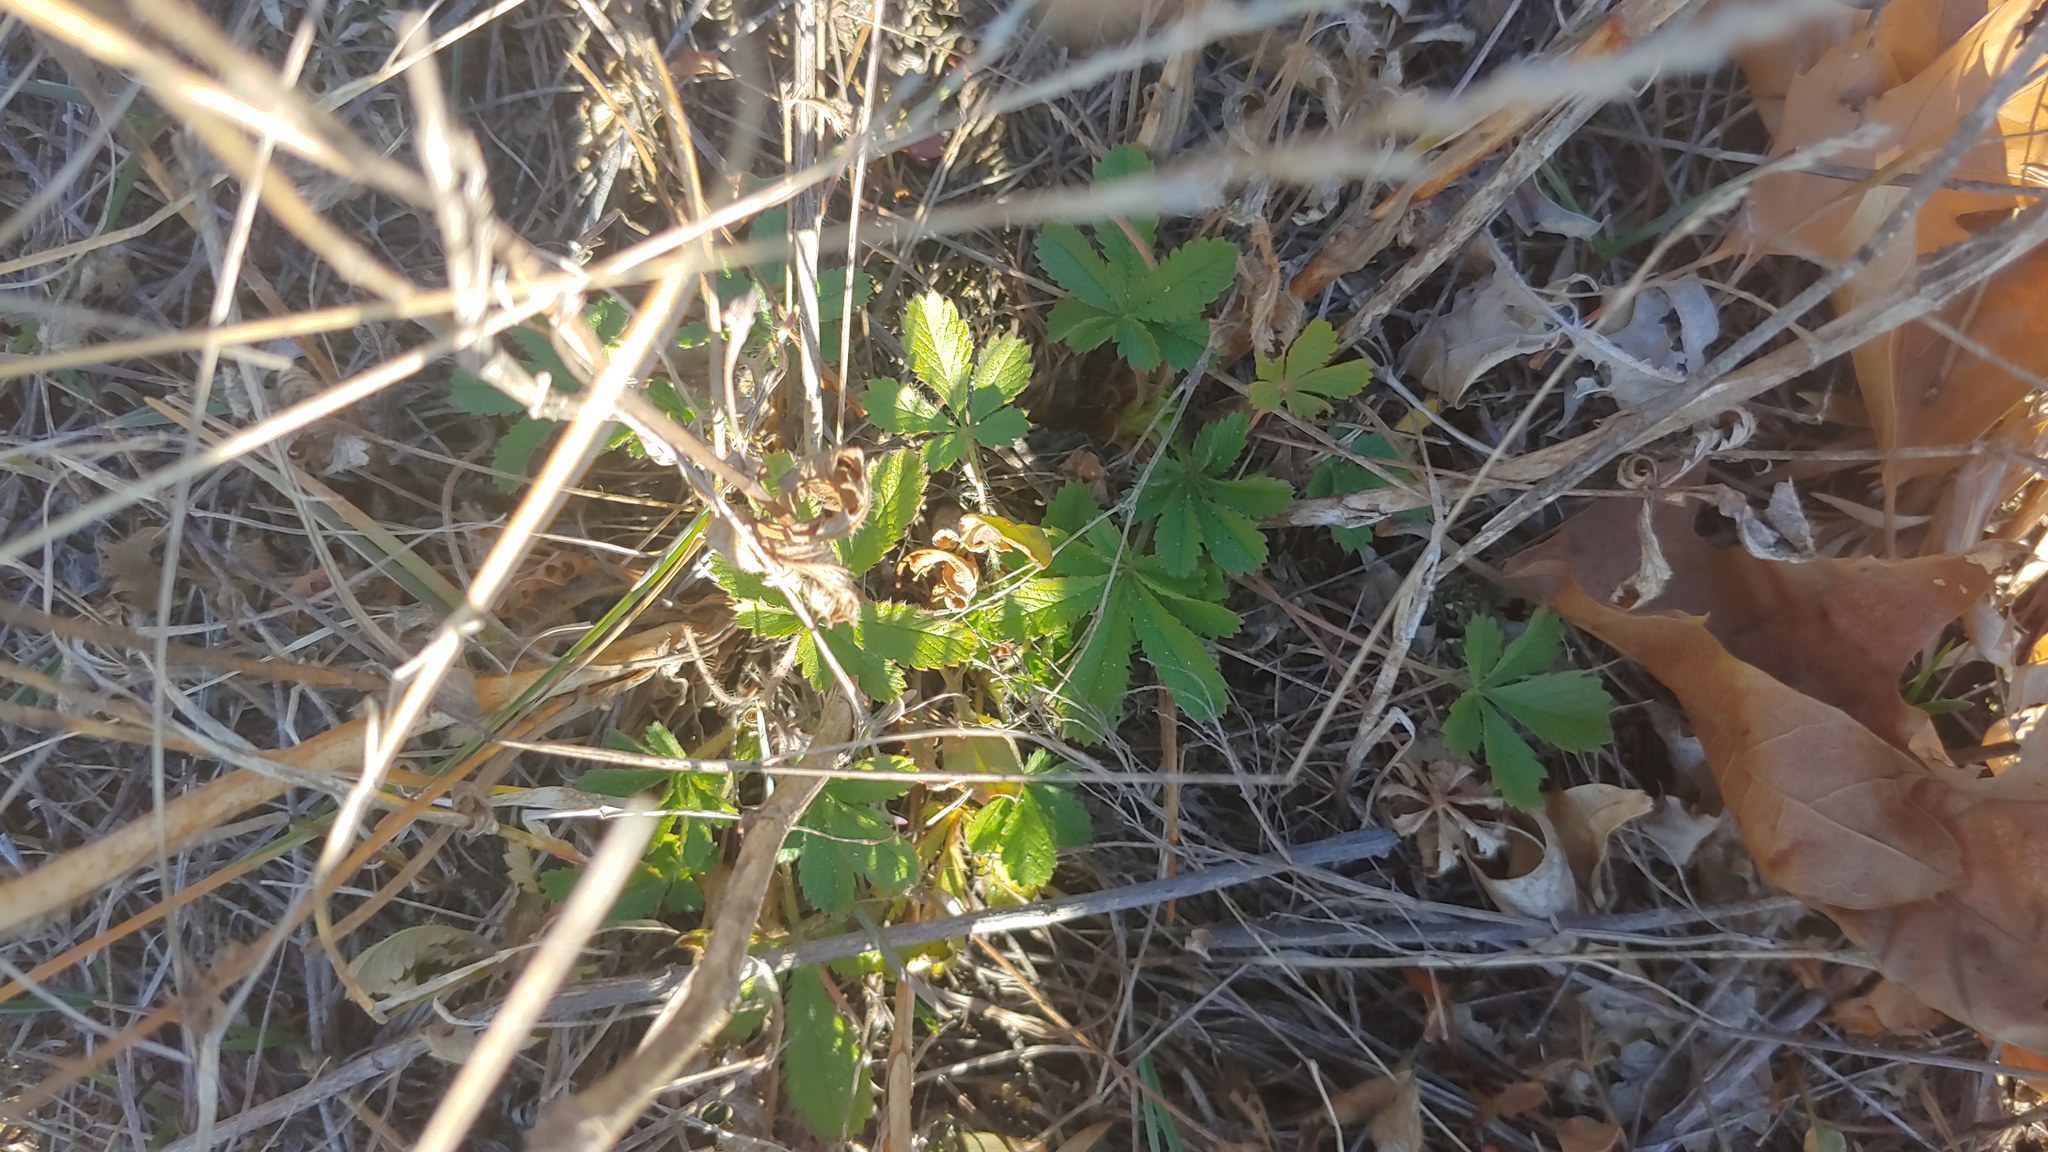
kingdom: Plantae
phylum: Tracheophyta
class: Magnoliopsida
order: Rosales
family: Rosaceae
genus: Potentilla
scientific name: Potentilla recta
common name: Sulphur cinquefoil
